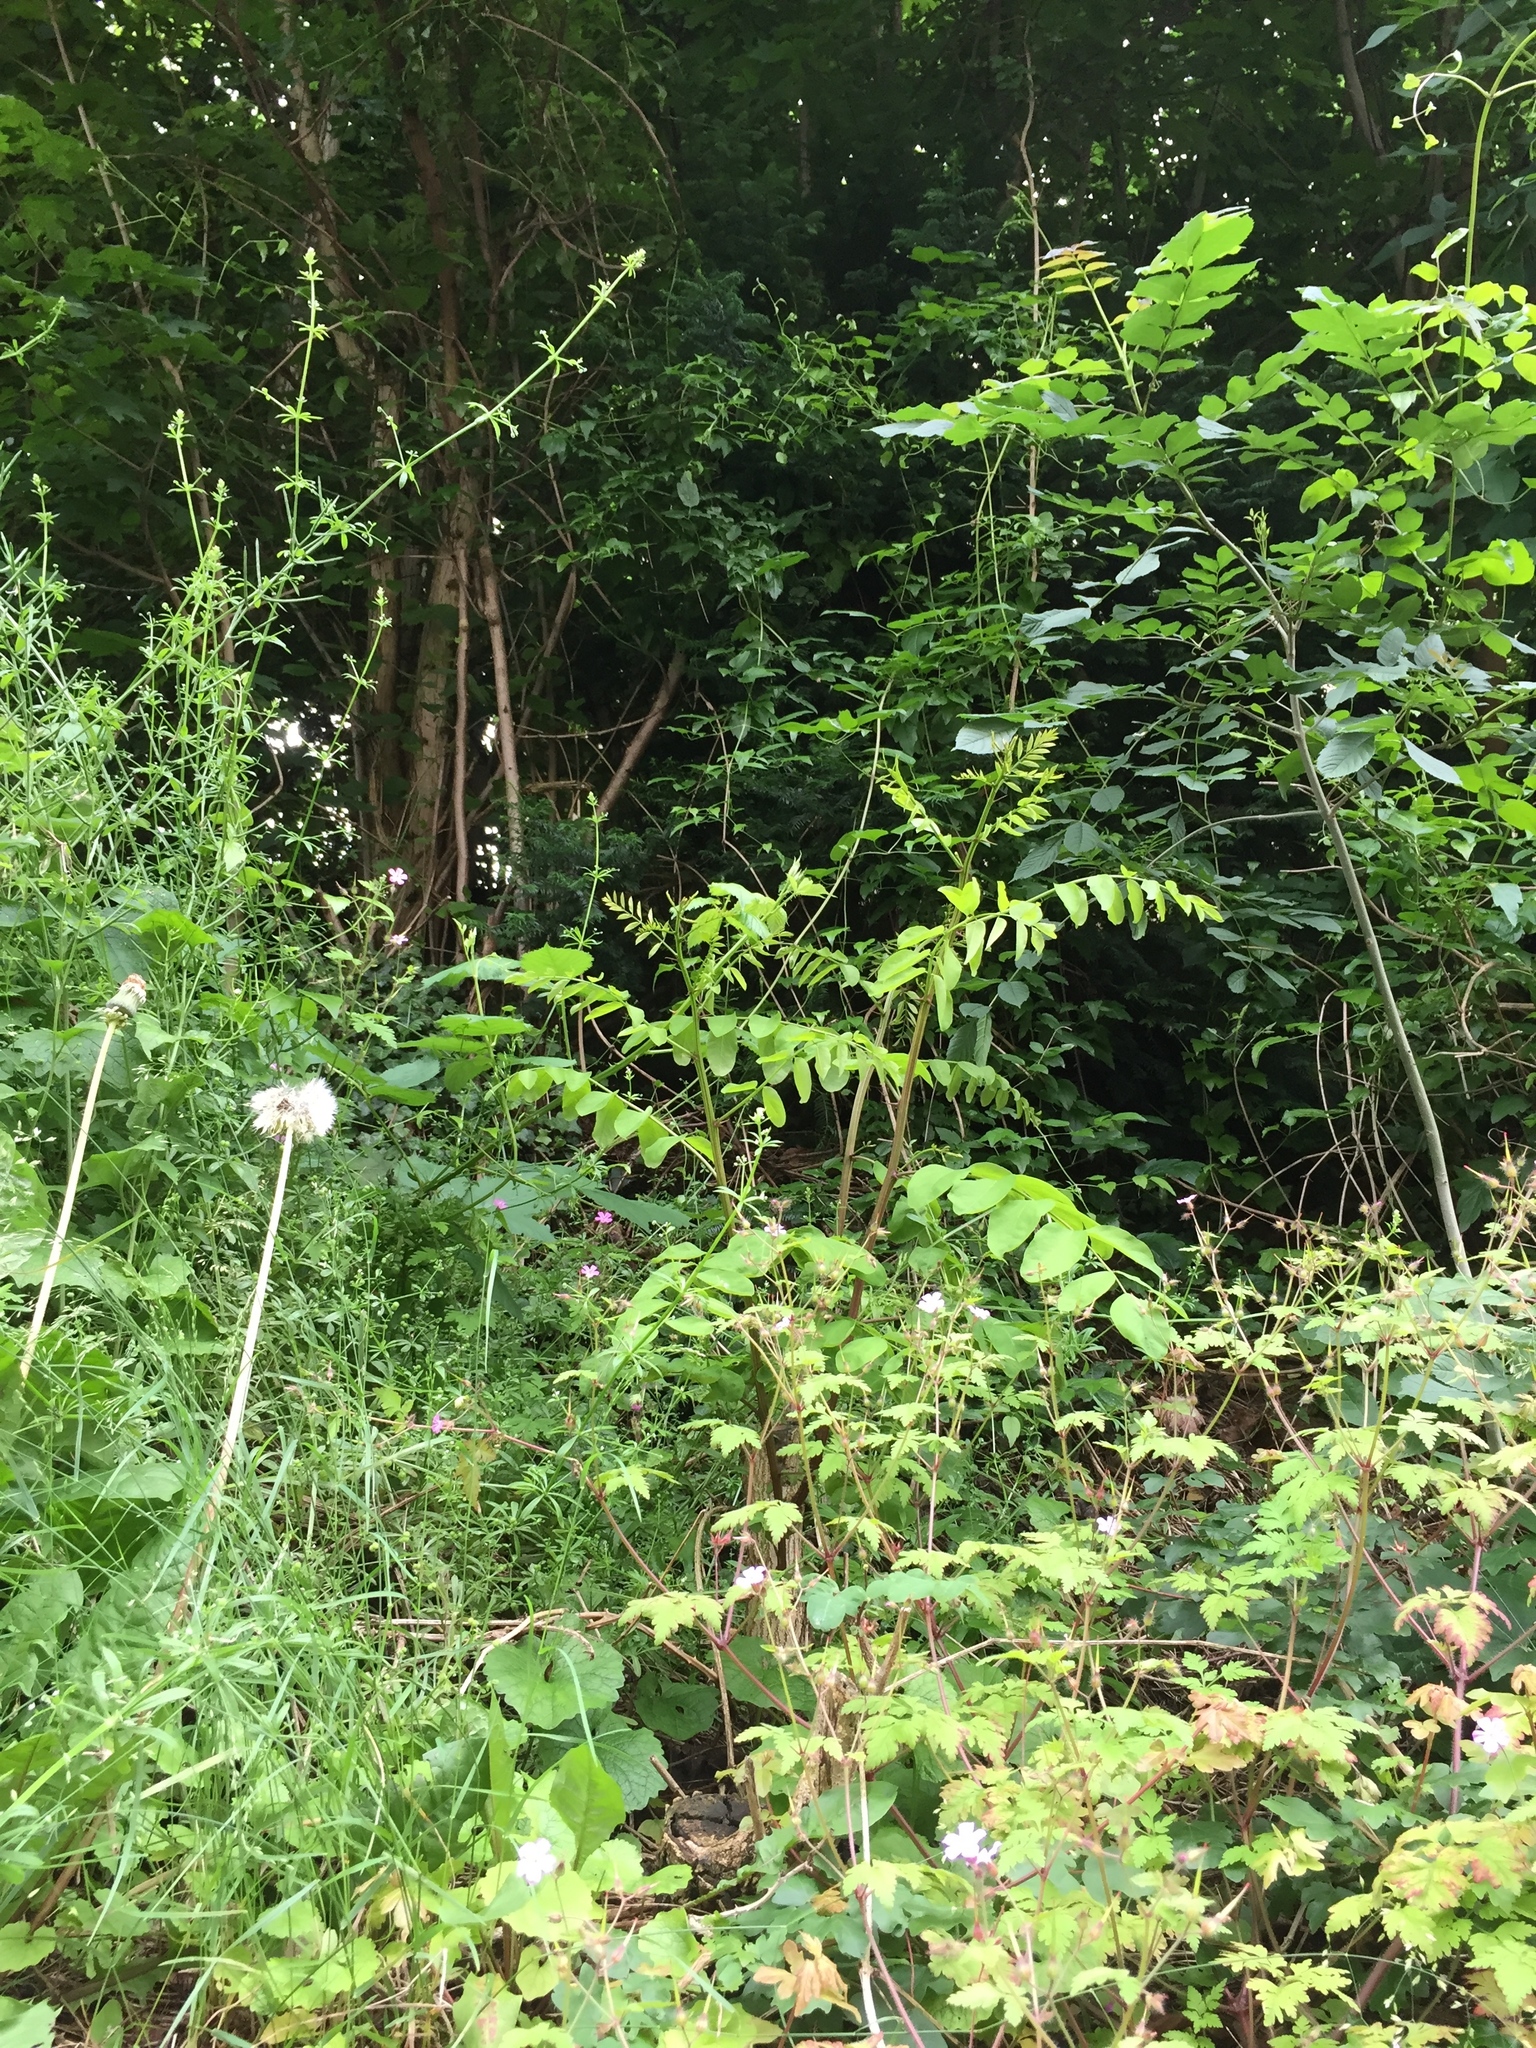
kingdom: Plantae
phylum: Tracheophyta
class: Magnoliopsida
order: Fabales
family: Fabaceae
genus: Robinia
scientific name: Robinia pseudoacacia
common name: Black locust
